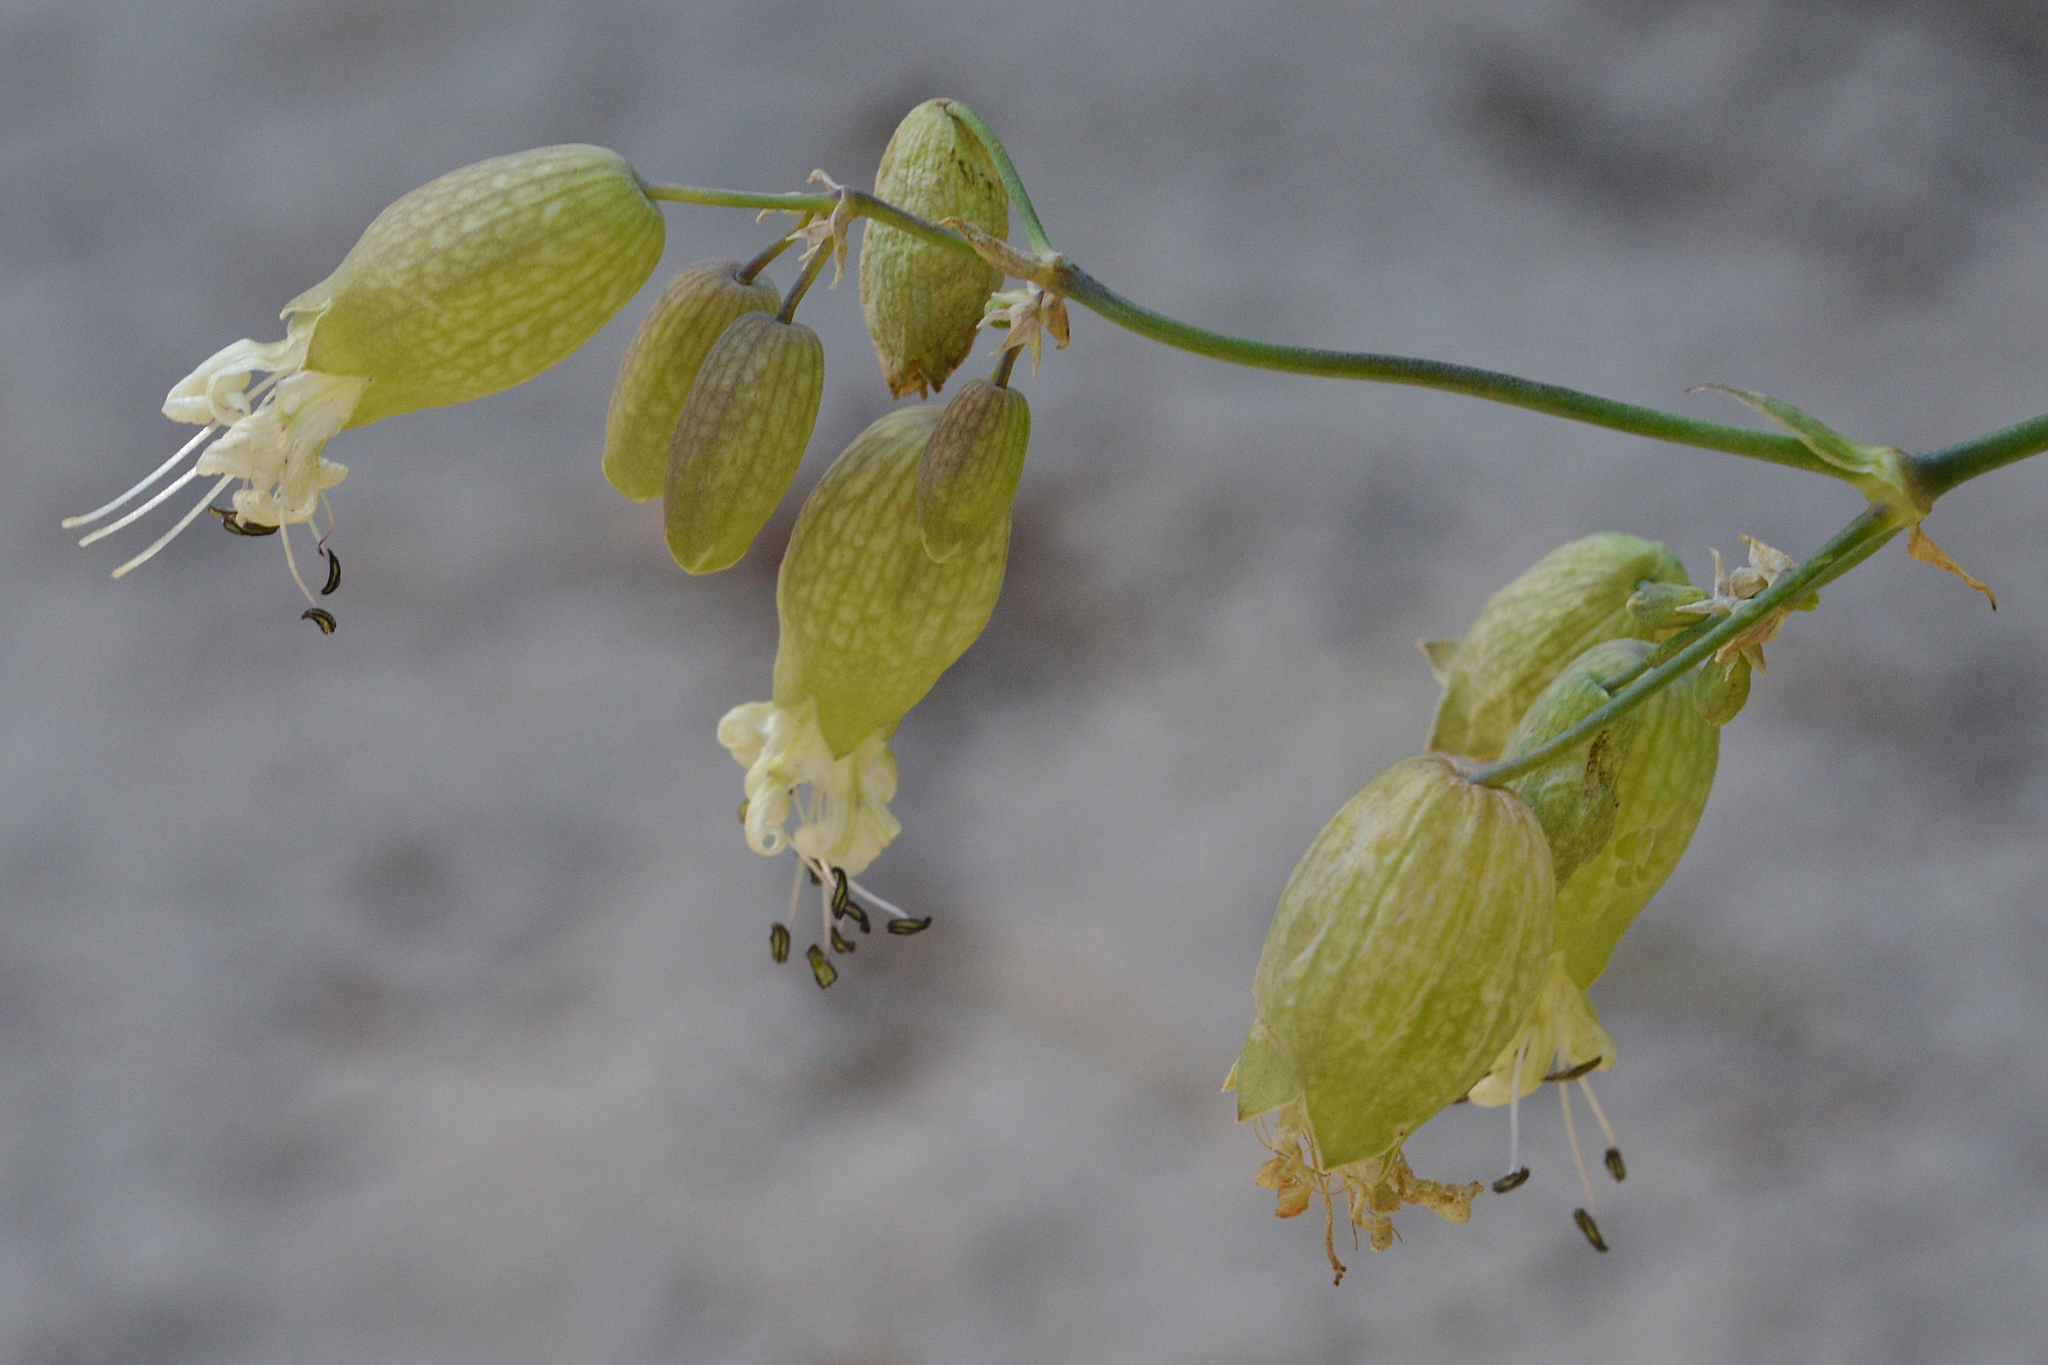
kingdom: Plantae
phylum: Tracheophyta
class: Magnoliopsida
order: Caryophyllales
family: Caryophyllaceae
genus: Silene
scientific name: Silene vulgaris
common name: Bladder campion
